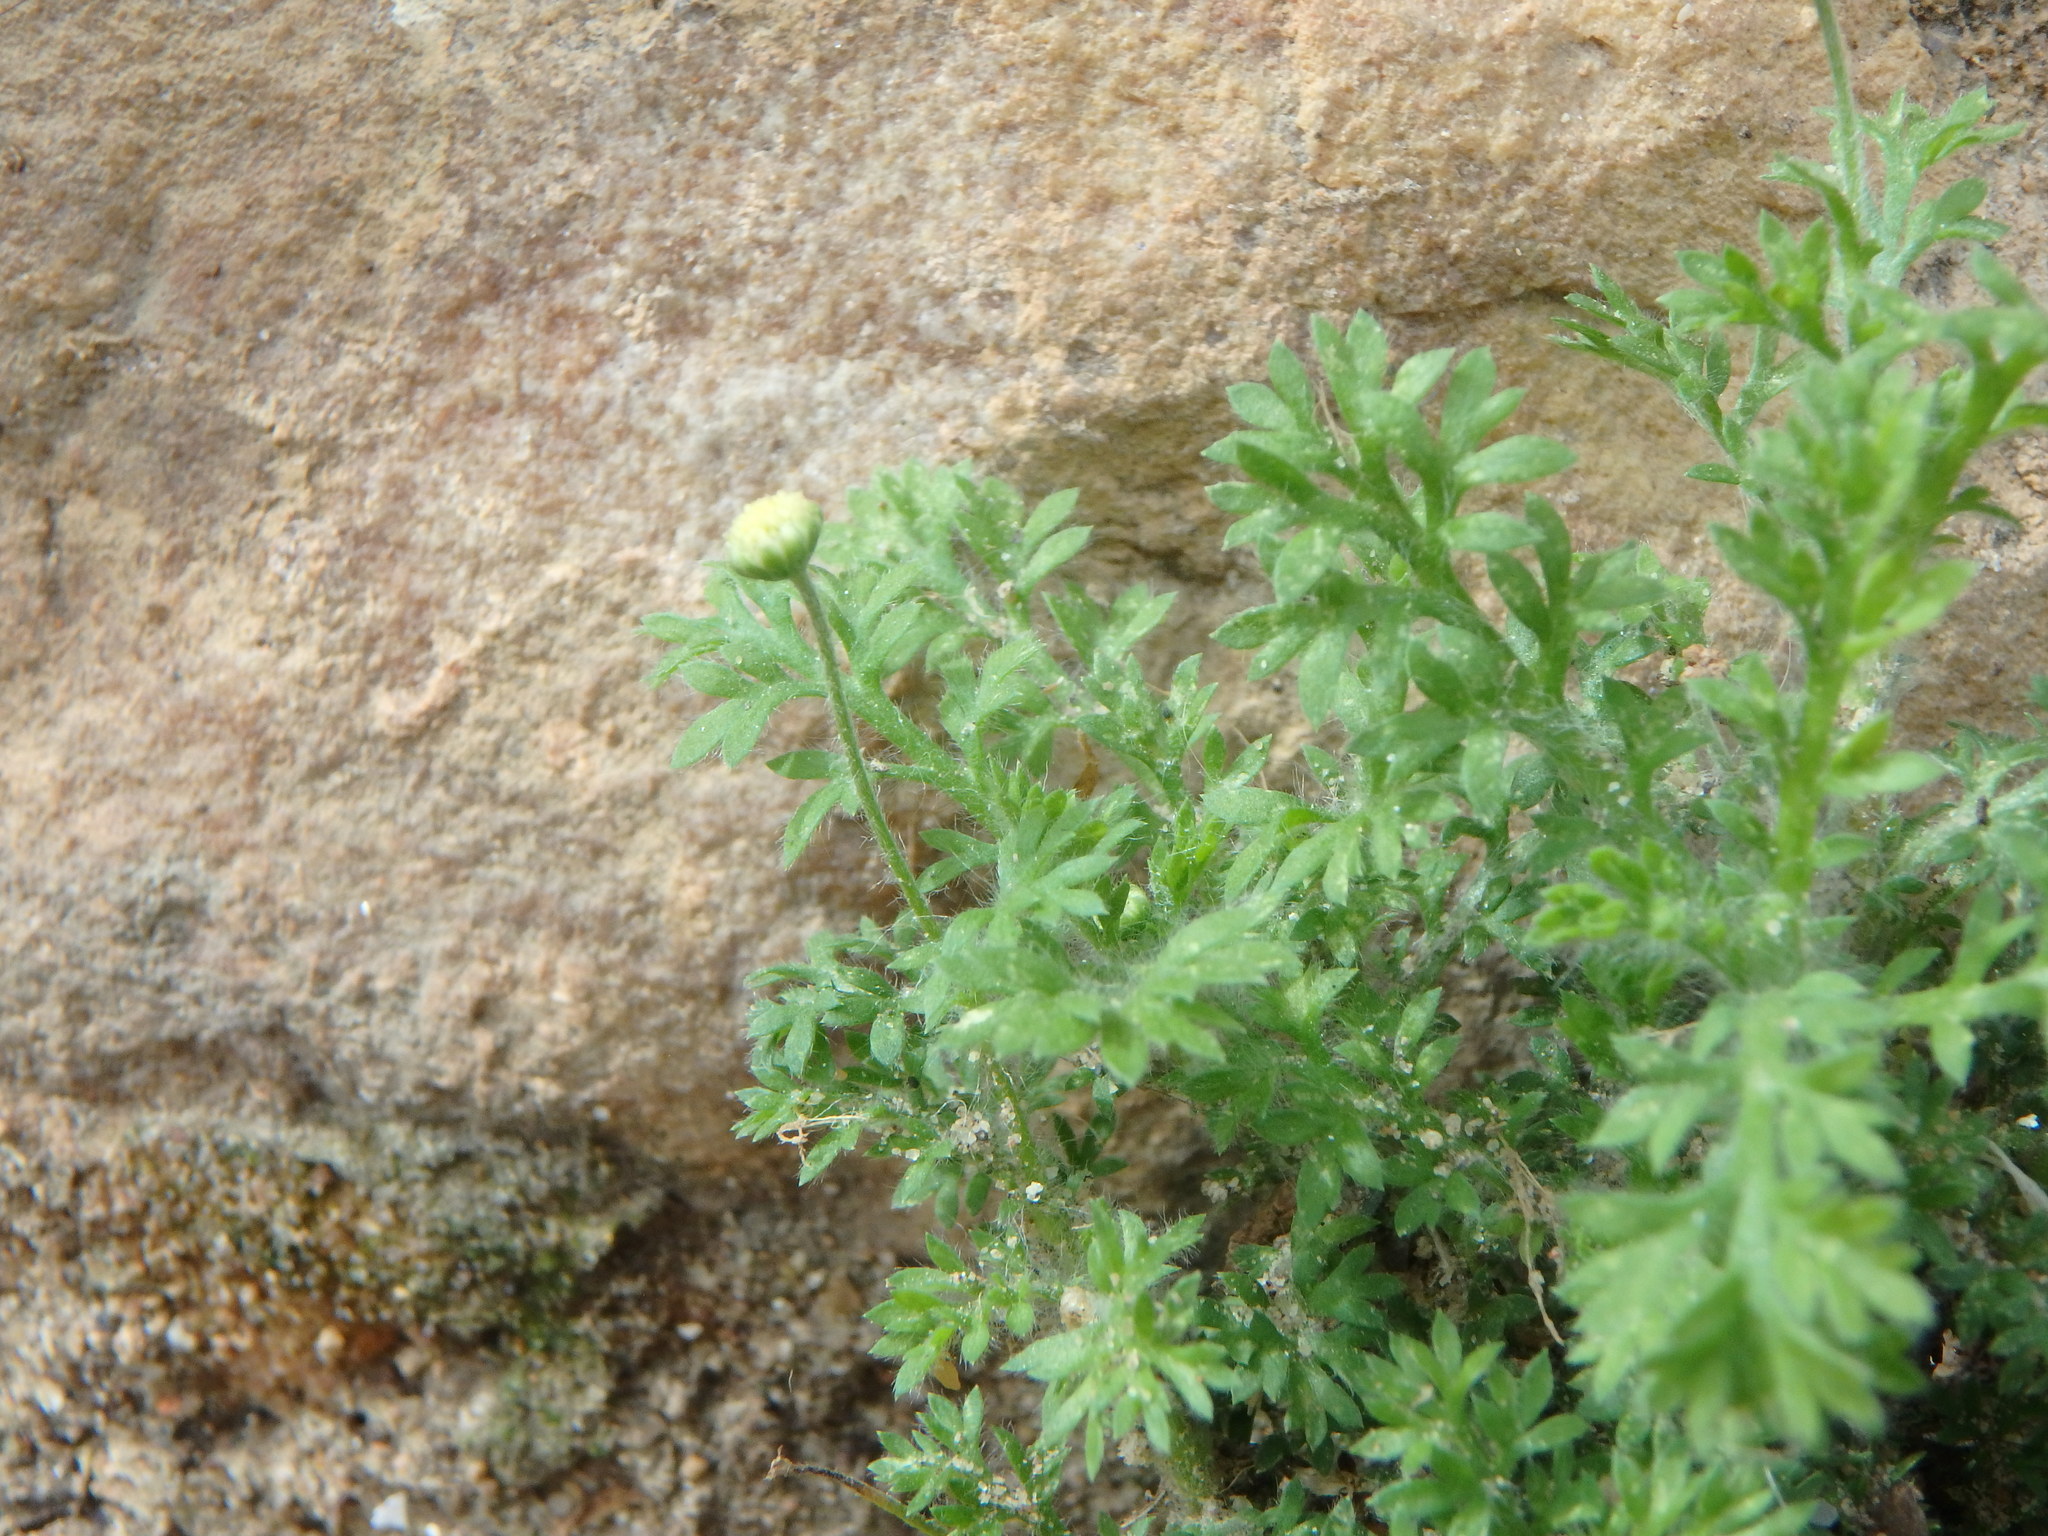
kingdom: Plantae
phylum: Tracheophyta
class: Magnoliopsida
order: Asterales
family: Asteraceae
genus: Cotula
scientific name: Cotula australis
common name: Australian waterbuttons
